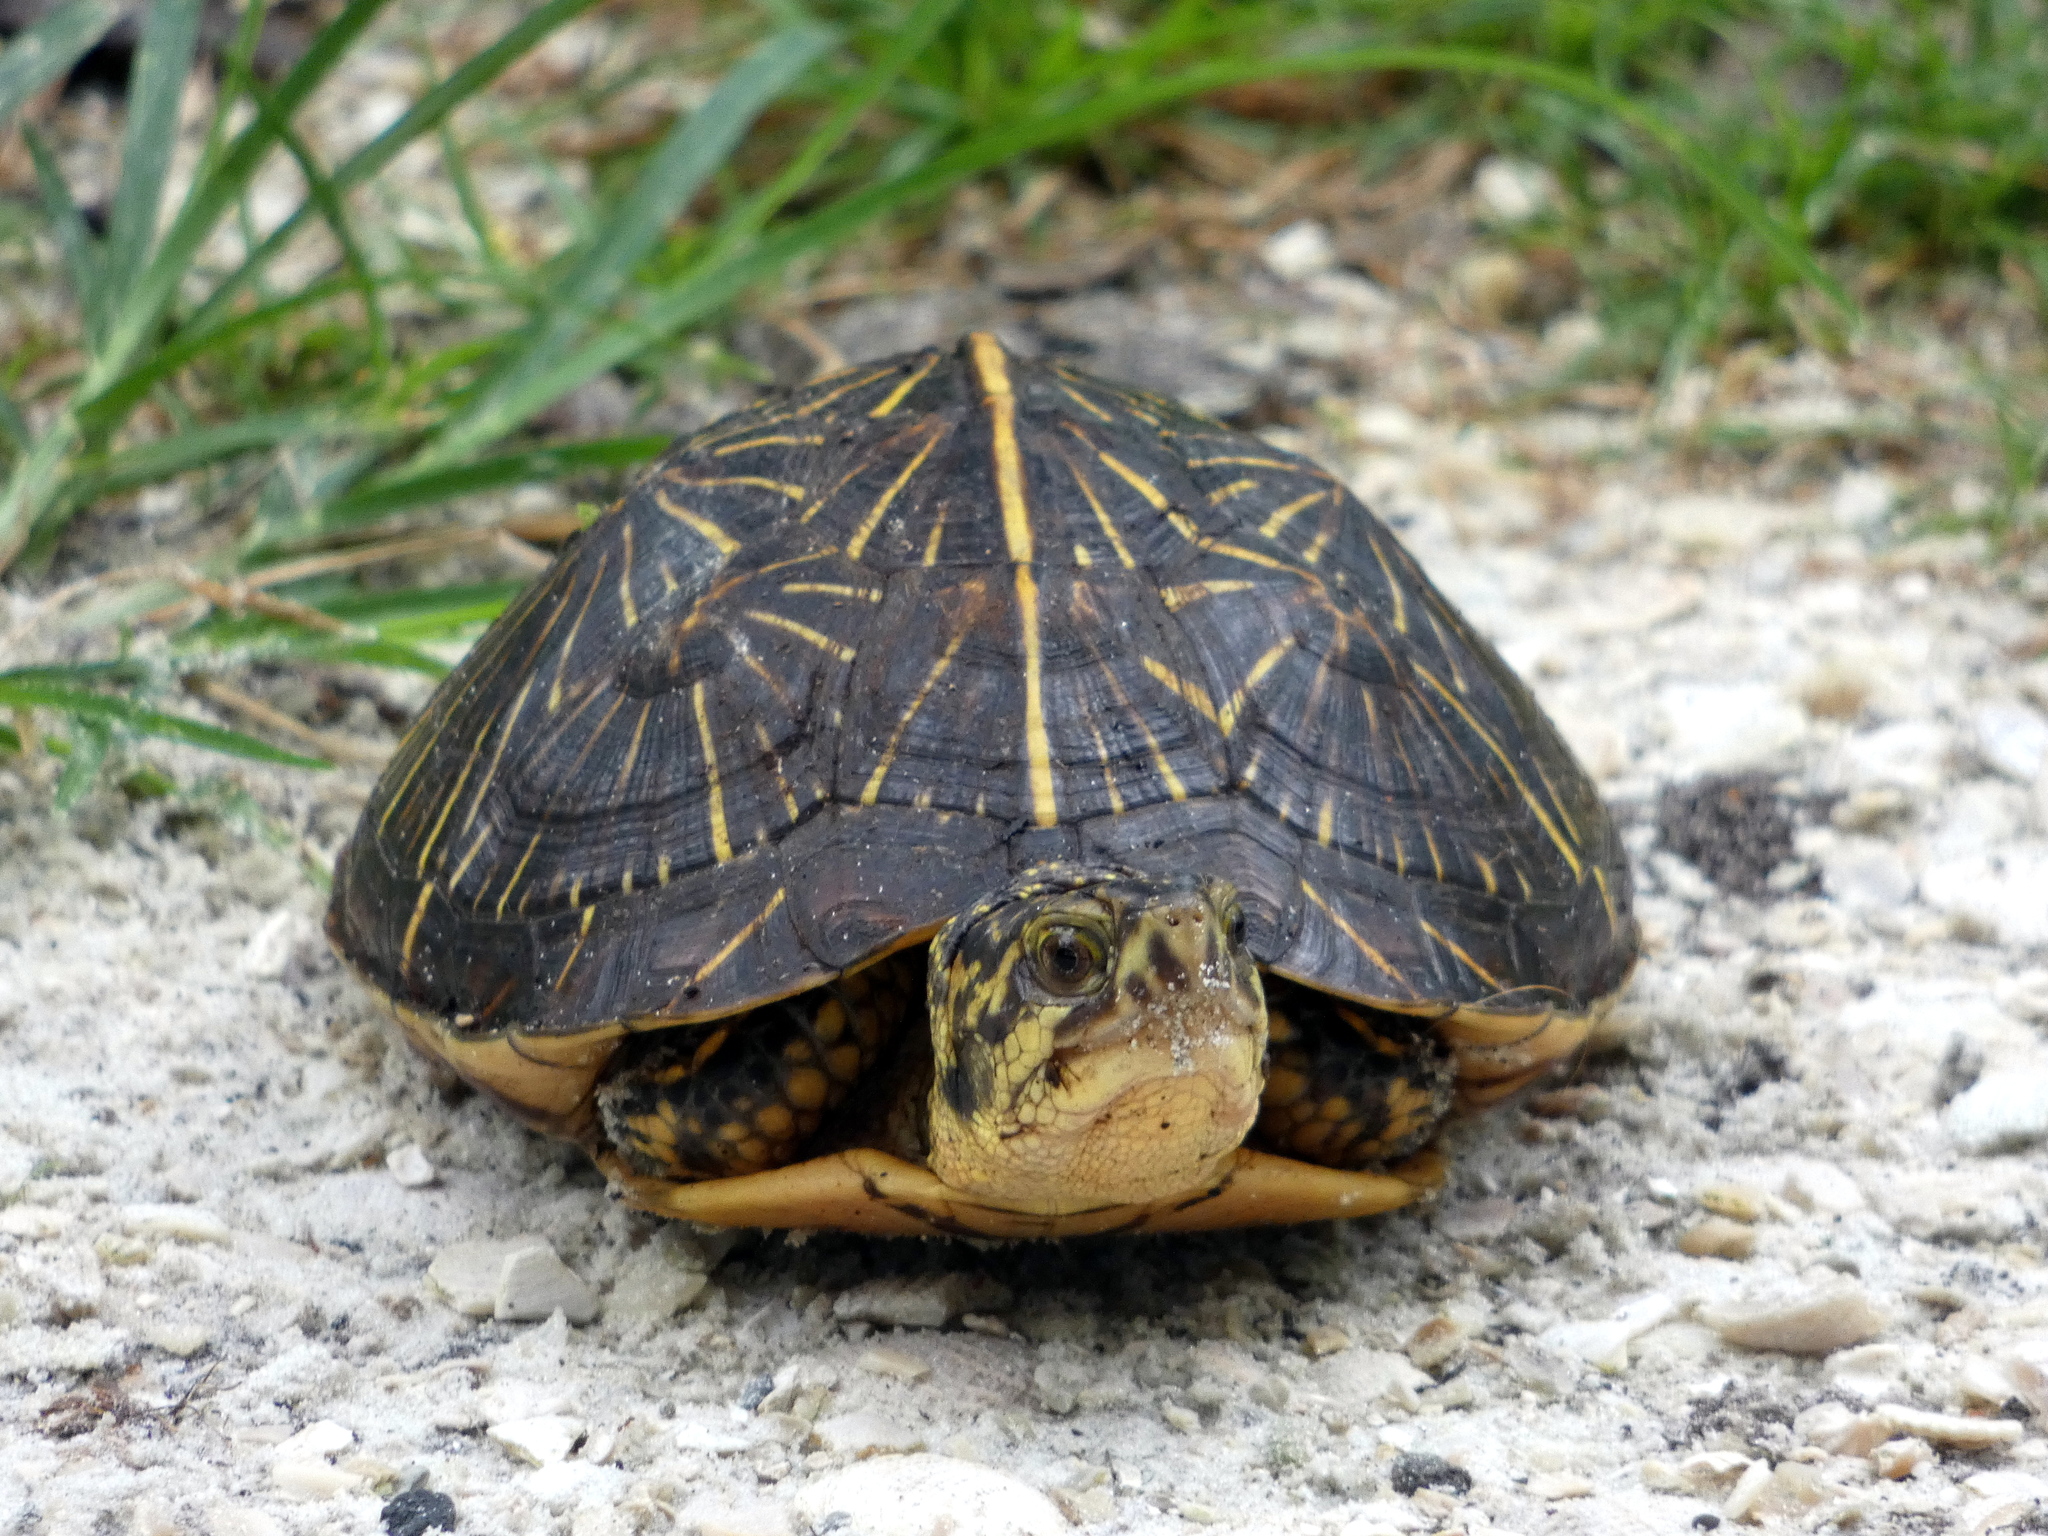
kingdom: Animalia
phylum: Chordata
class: Testudines
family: Emydidae
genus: Terrapene
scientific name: Terrapene carolina
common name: Common box turtle
